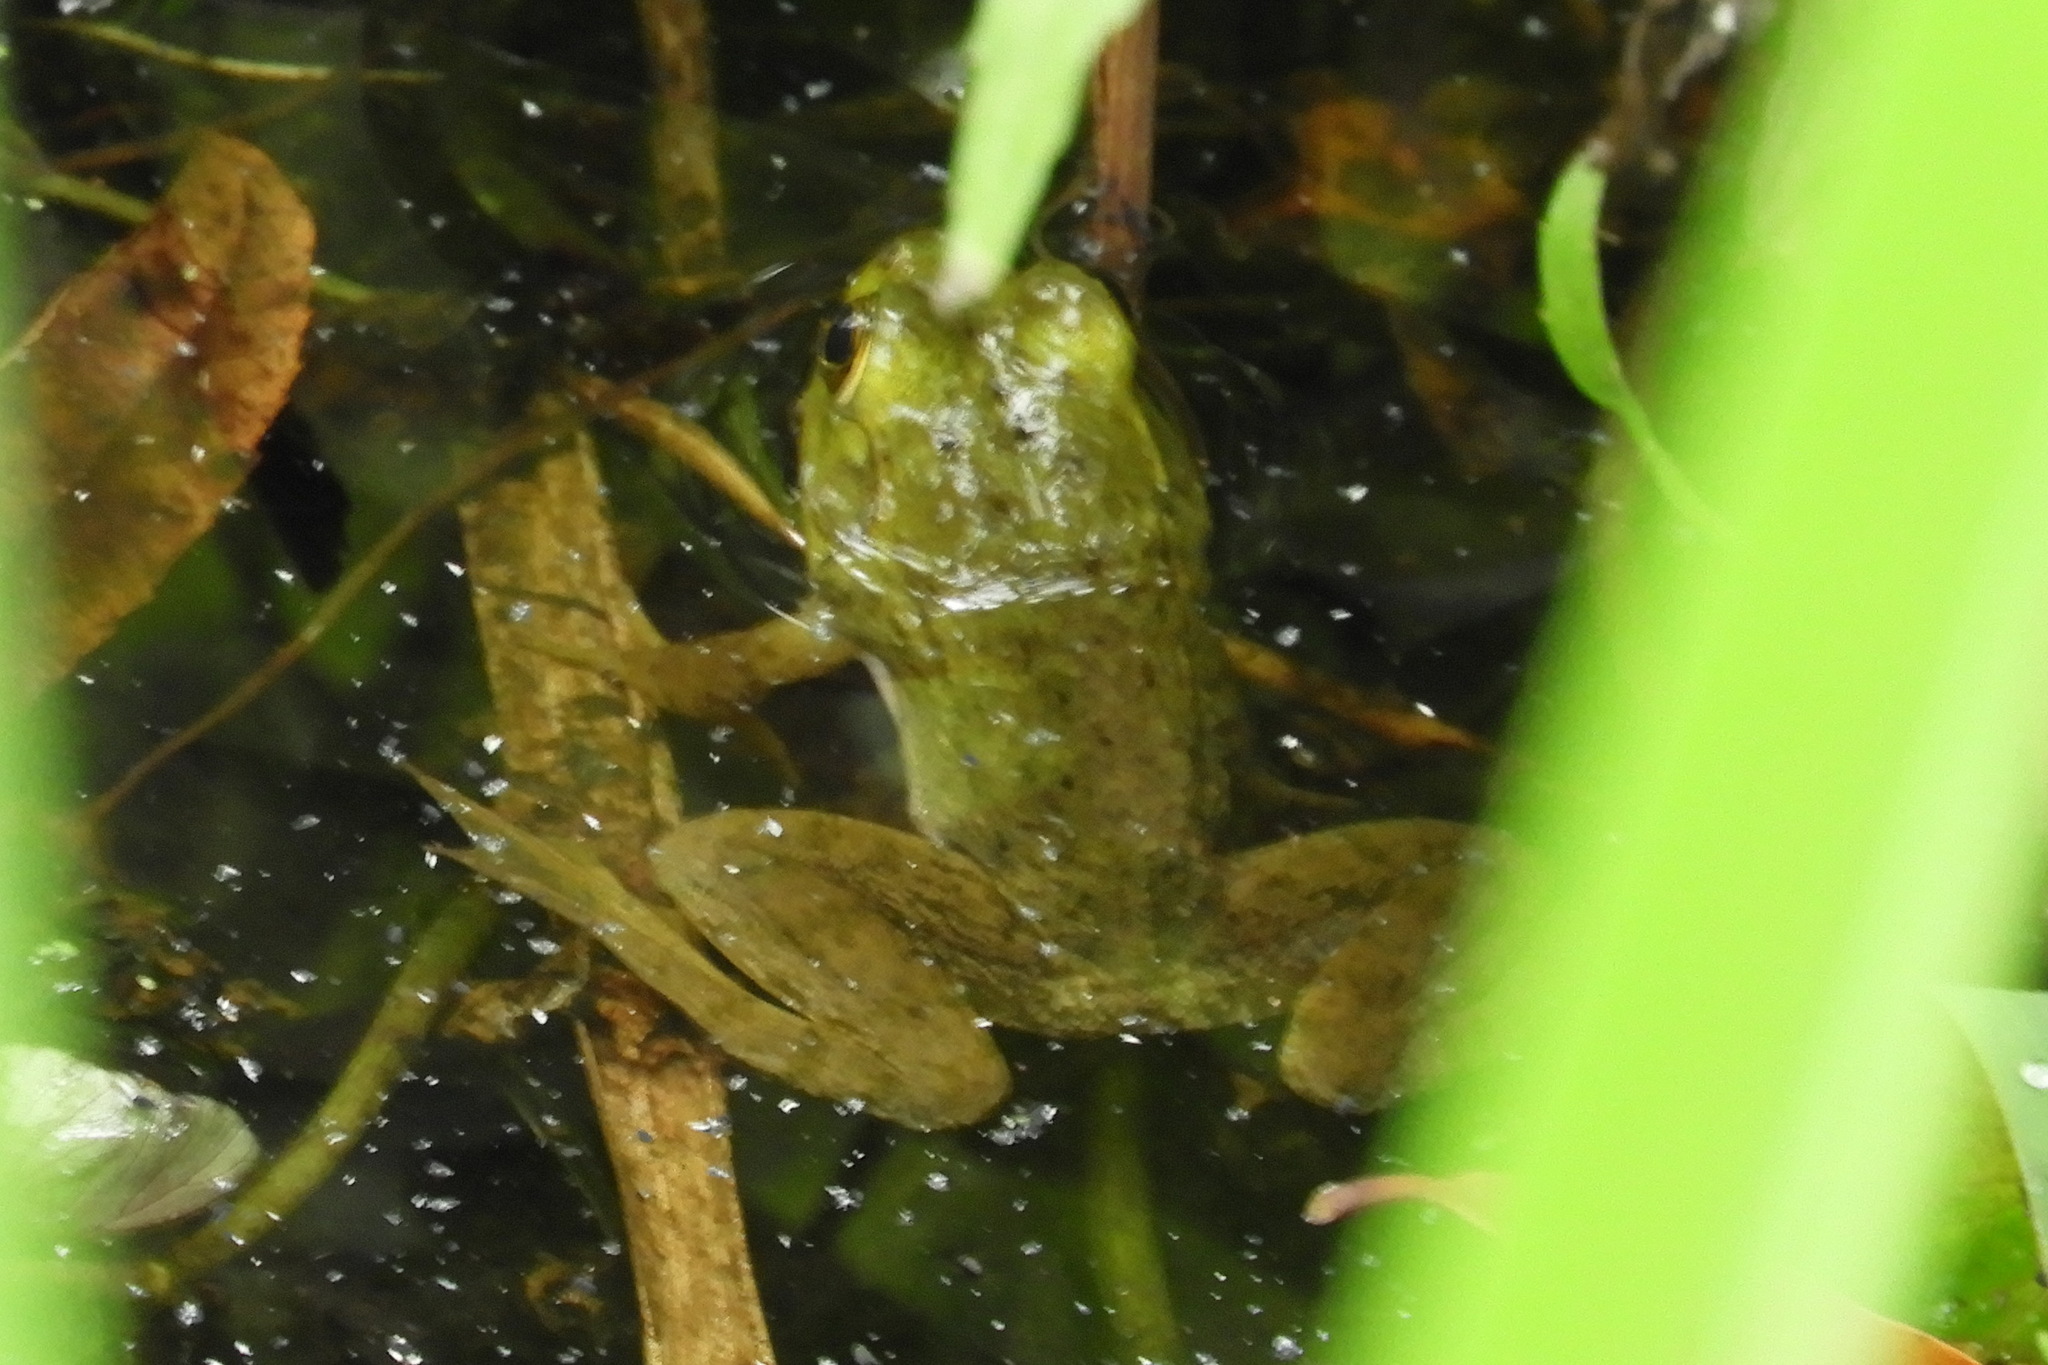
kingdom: Animalia
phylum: Chordata
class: Amphibia
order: Anura
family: Ranidae
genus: Lithobates
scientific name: Lithobates catesbeianus
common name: American bullfrog
